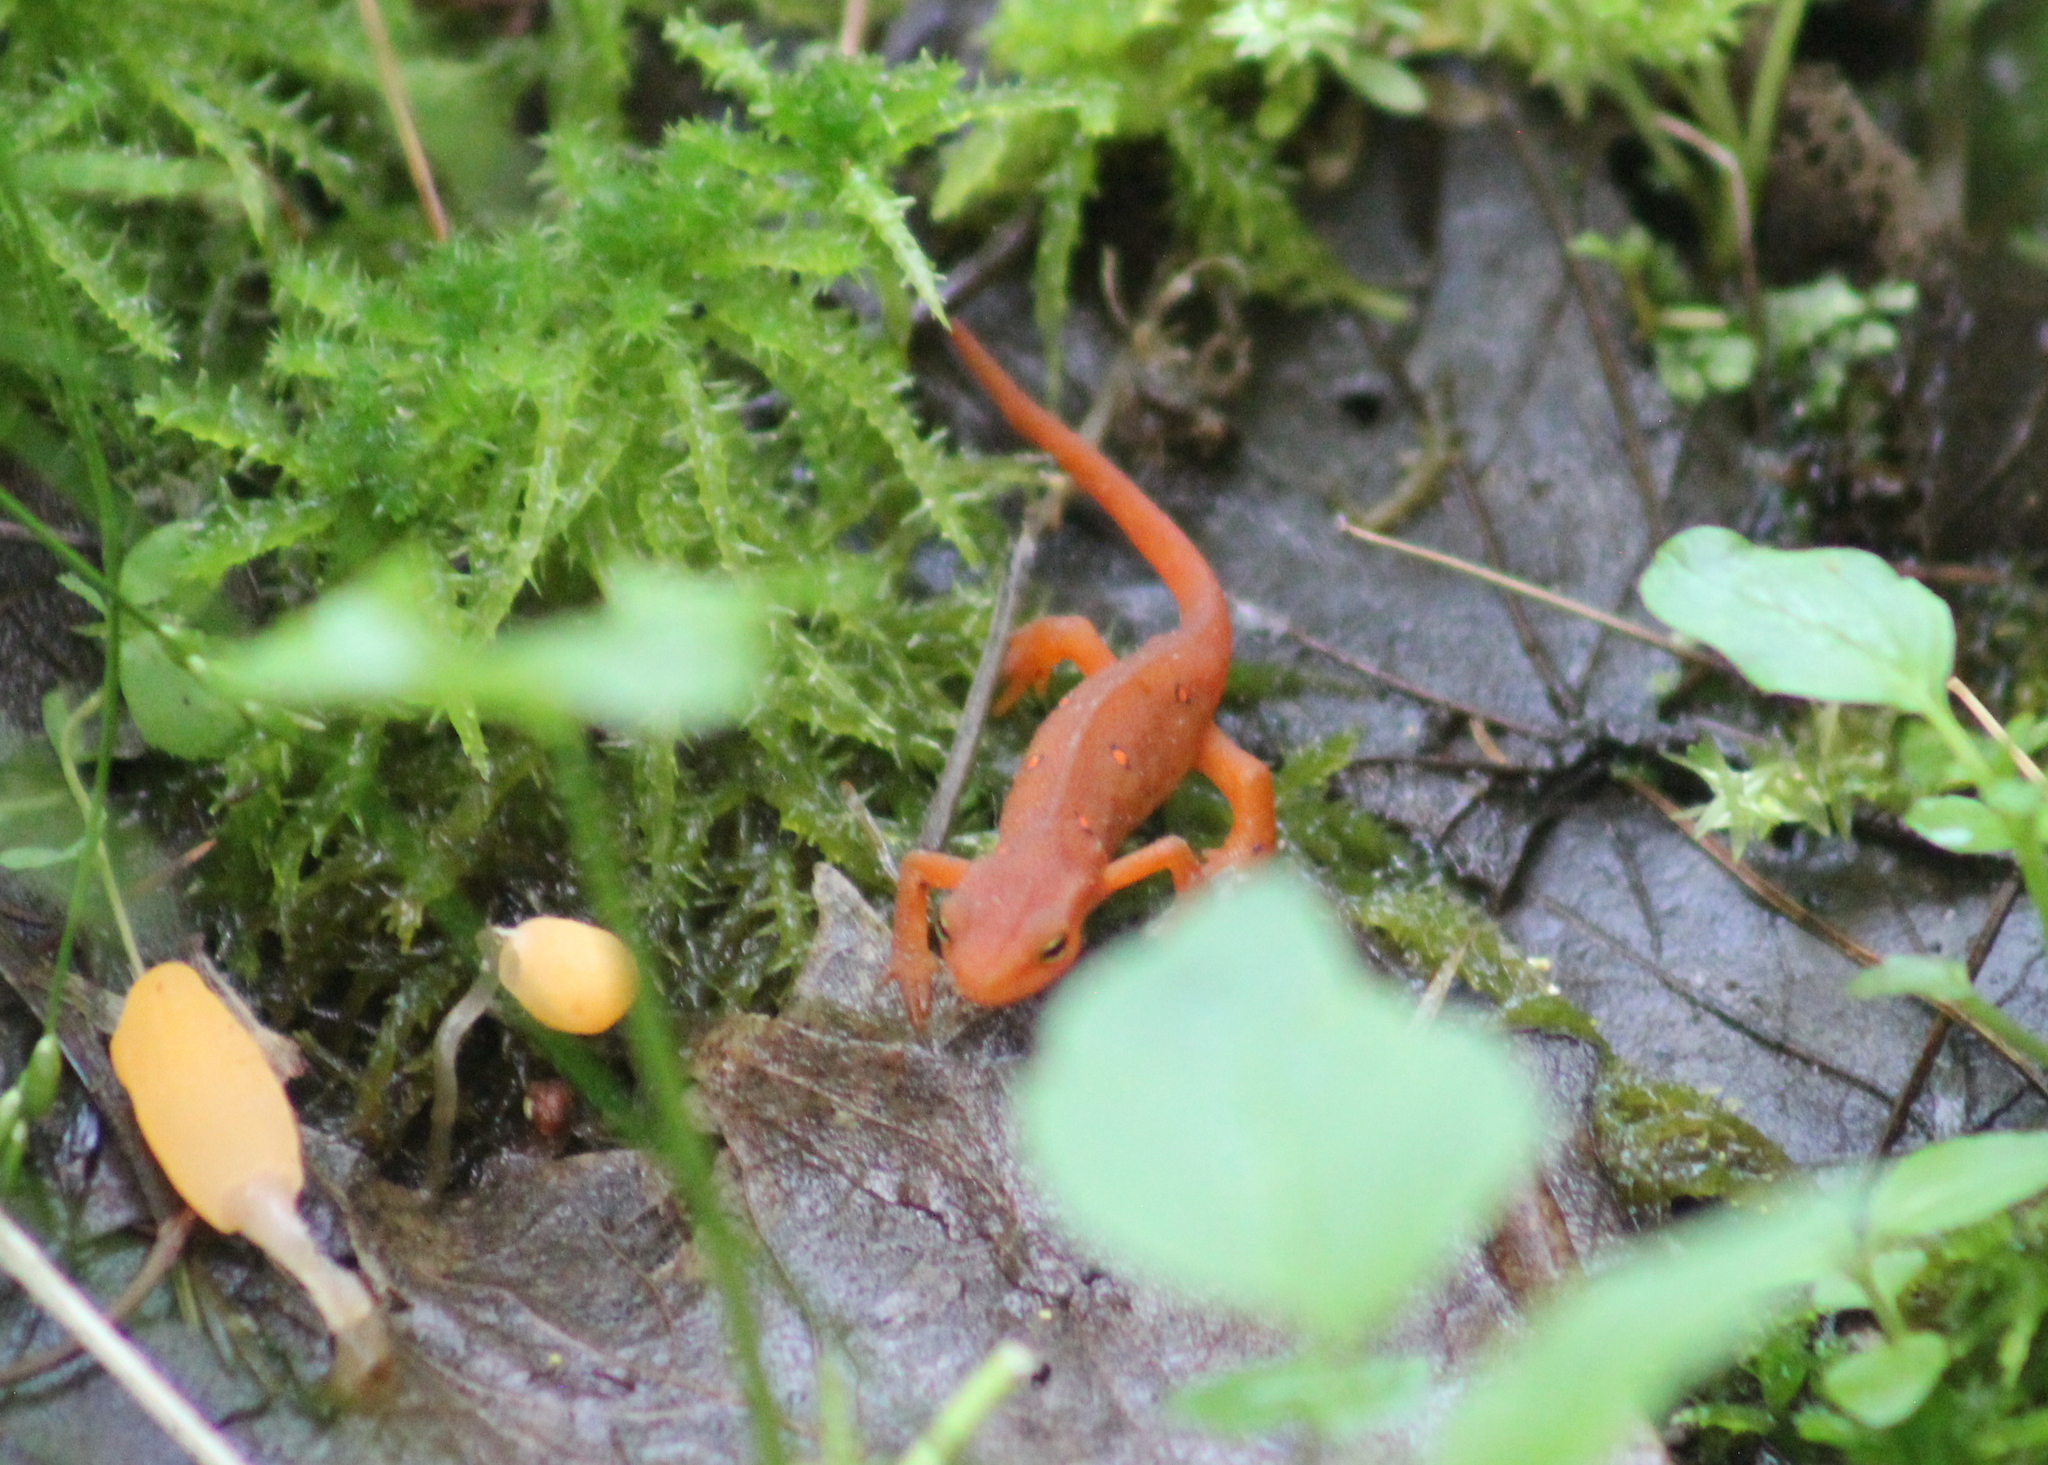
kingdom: Animalia
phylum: Chordata
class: Amphibia
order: Caudata
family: Salamandridae
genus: Notophthalmus
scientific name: Notophthalmus viridescens
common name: Eastern newt
